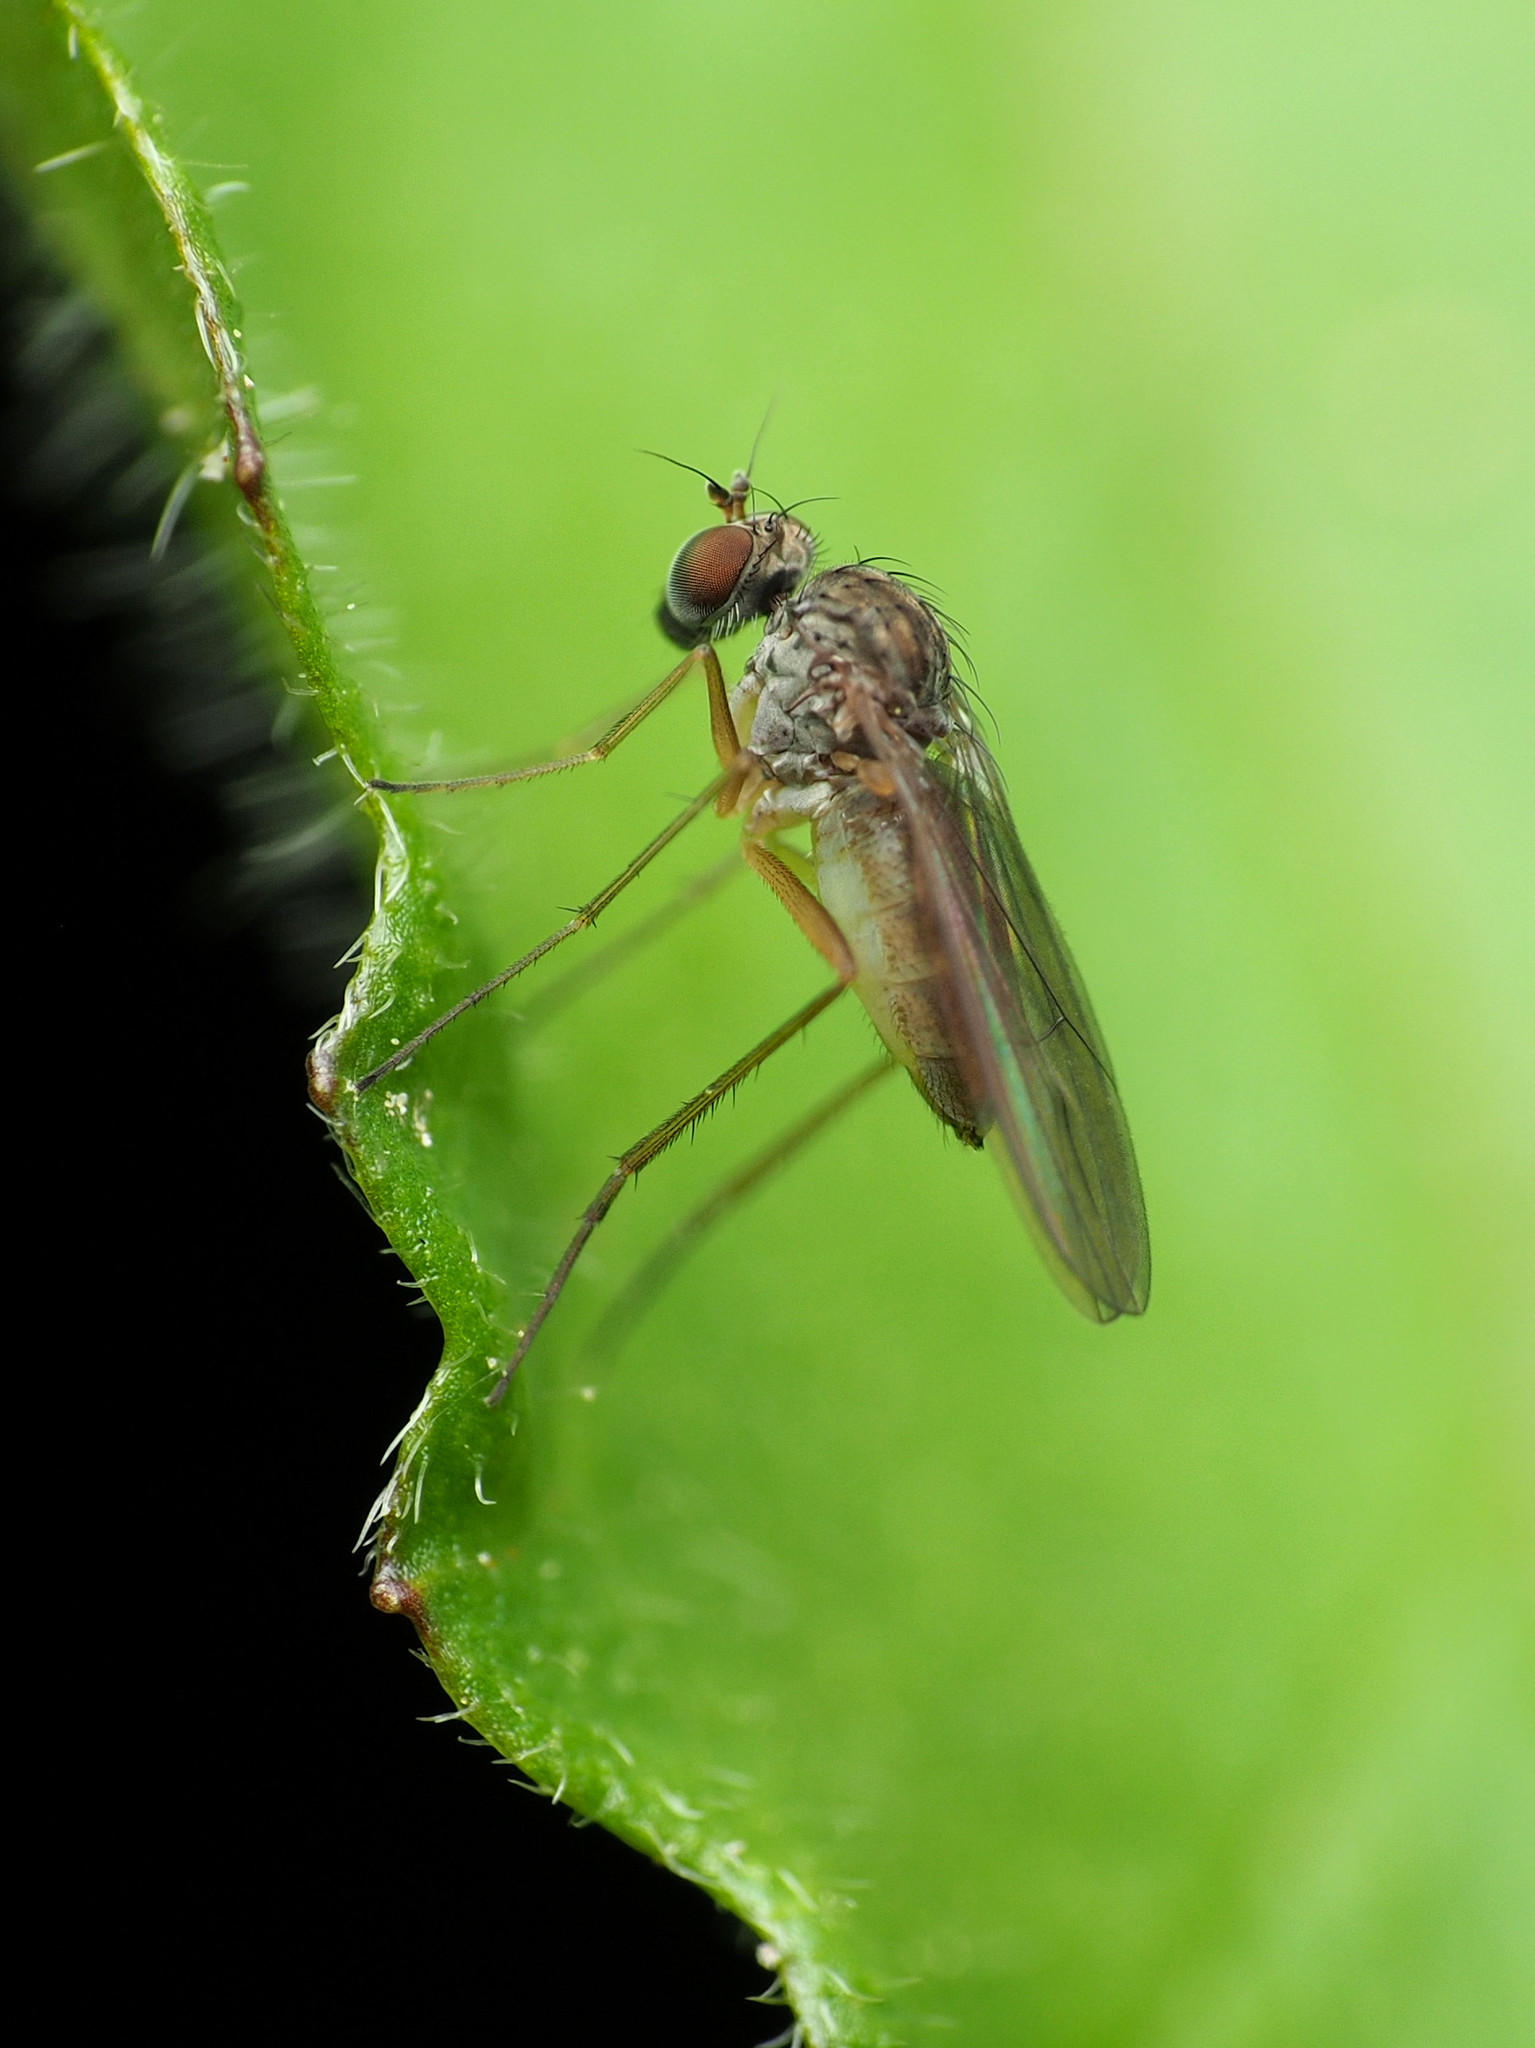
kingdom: Animalia
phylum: Arthropoda
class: Insecta
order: Diptera
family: Dolichopodidae
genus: Sympycnus
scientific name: Sympycnus lineatus
